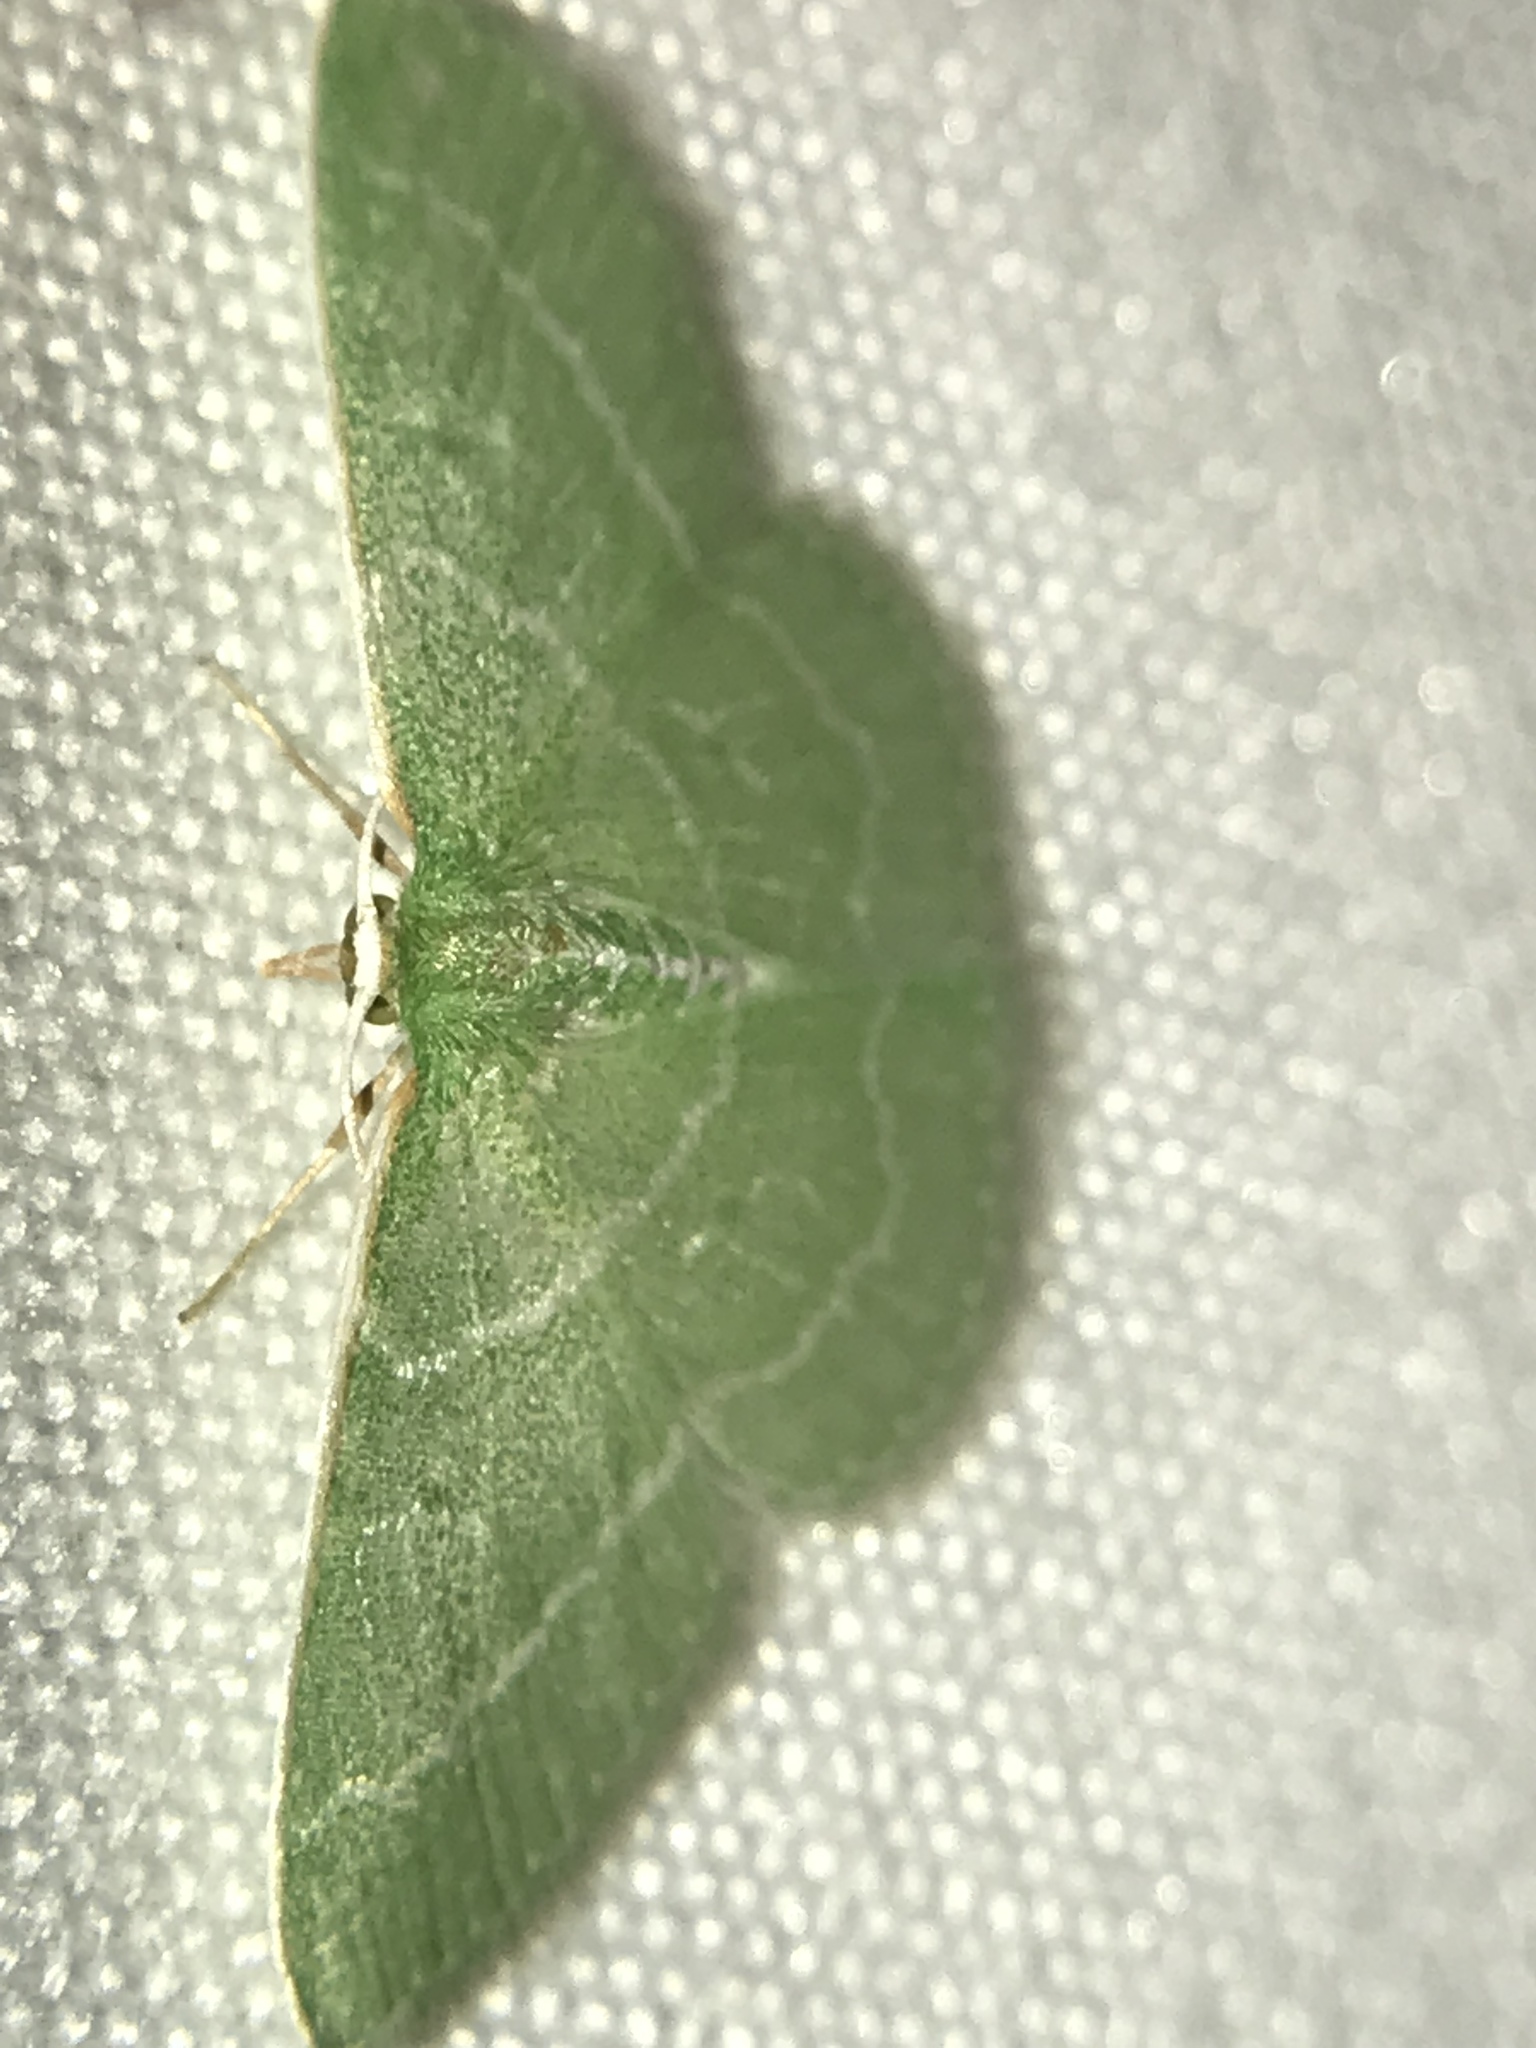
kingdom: Animalia
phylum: Arthropoda
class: Insecta
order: Lepidoptera
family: Geometridae
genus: Synchlora
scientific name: Synchlora aerata
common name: Wavy-lined emerald
